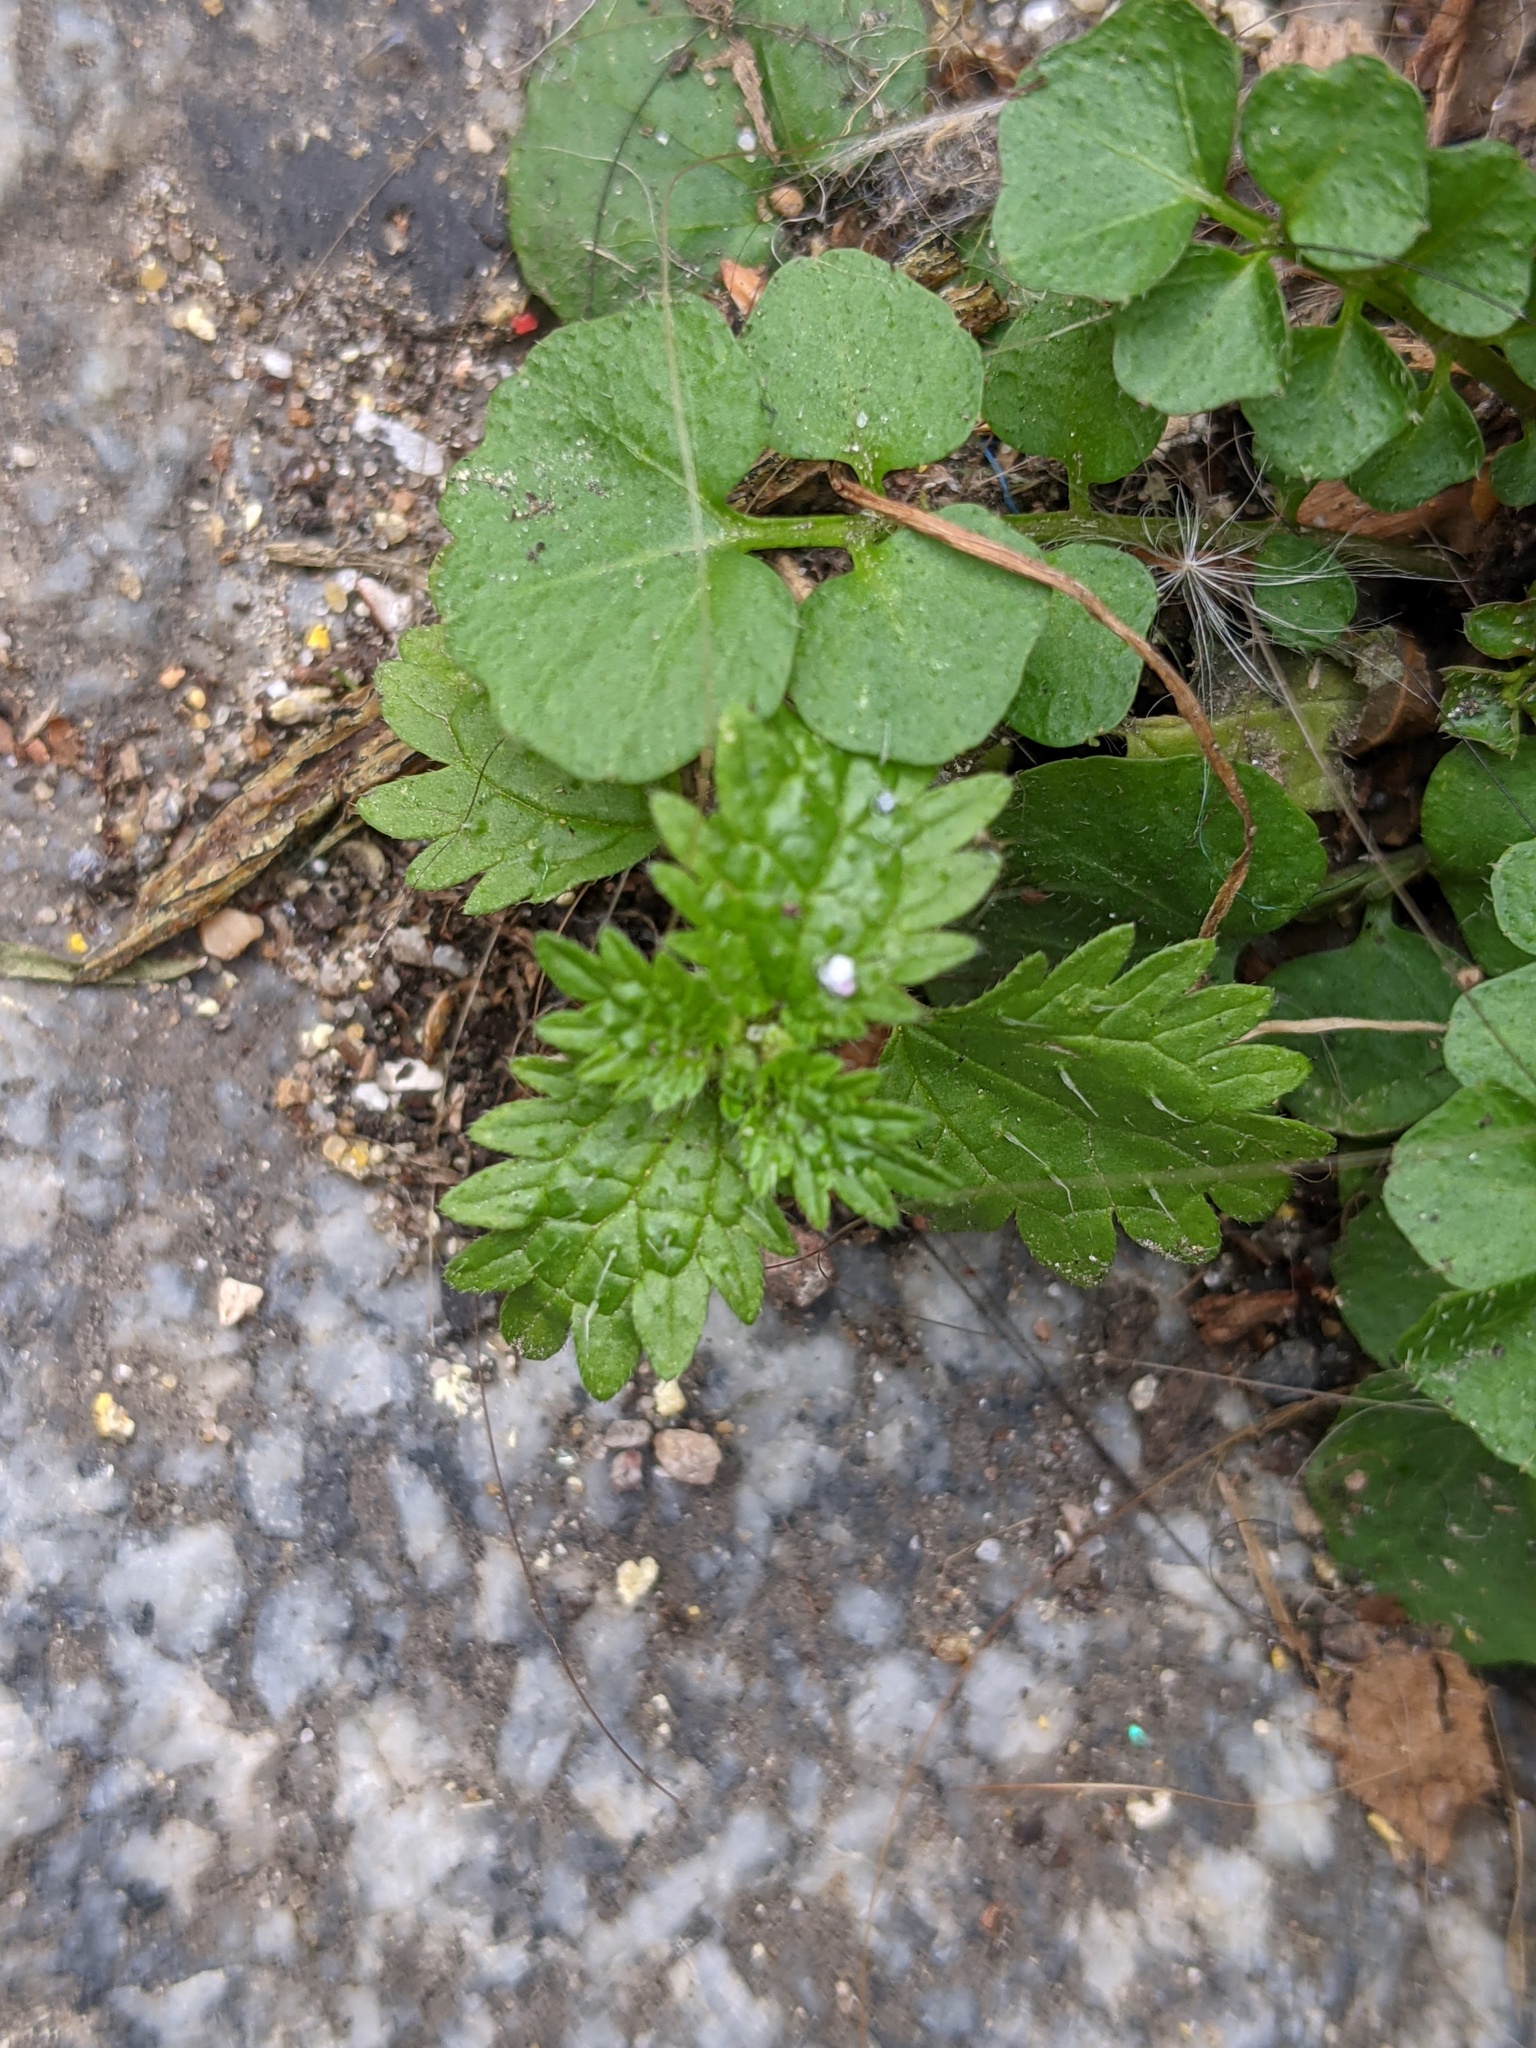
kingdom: Plantae
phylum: Tracheophyta
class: Magnoliopsida
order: Rosales
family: Urticaceae
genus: Urtica
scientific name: Urtica urens
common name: Dwarf nettle
